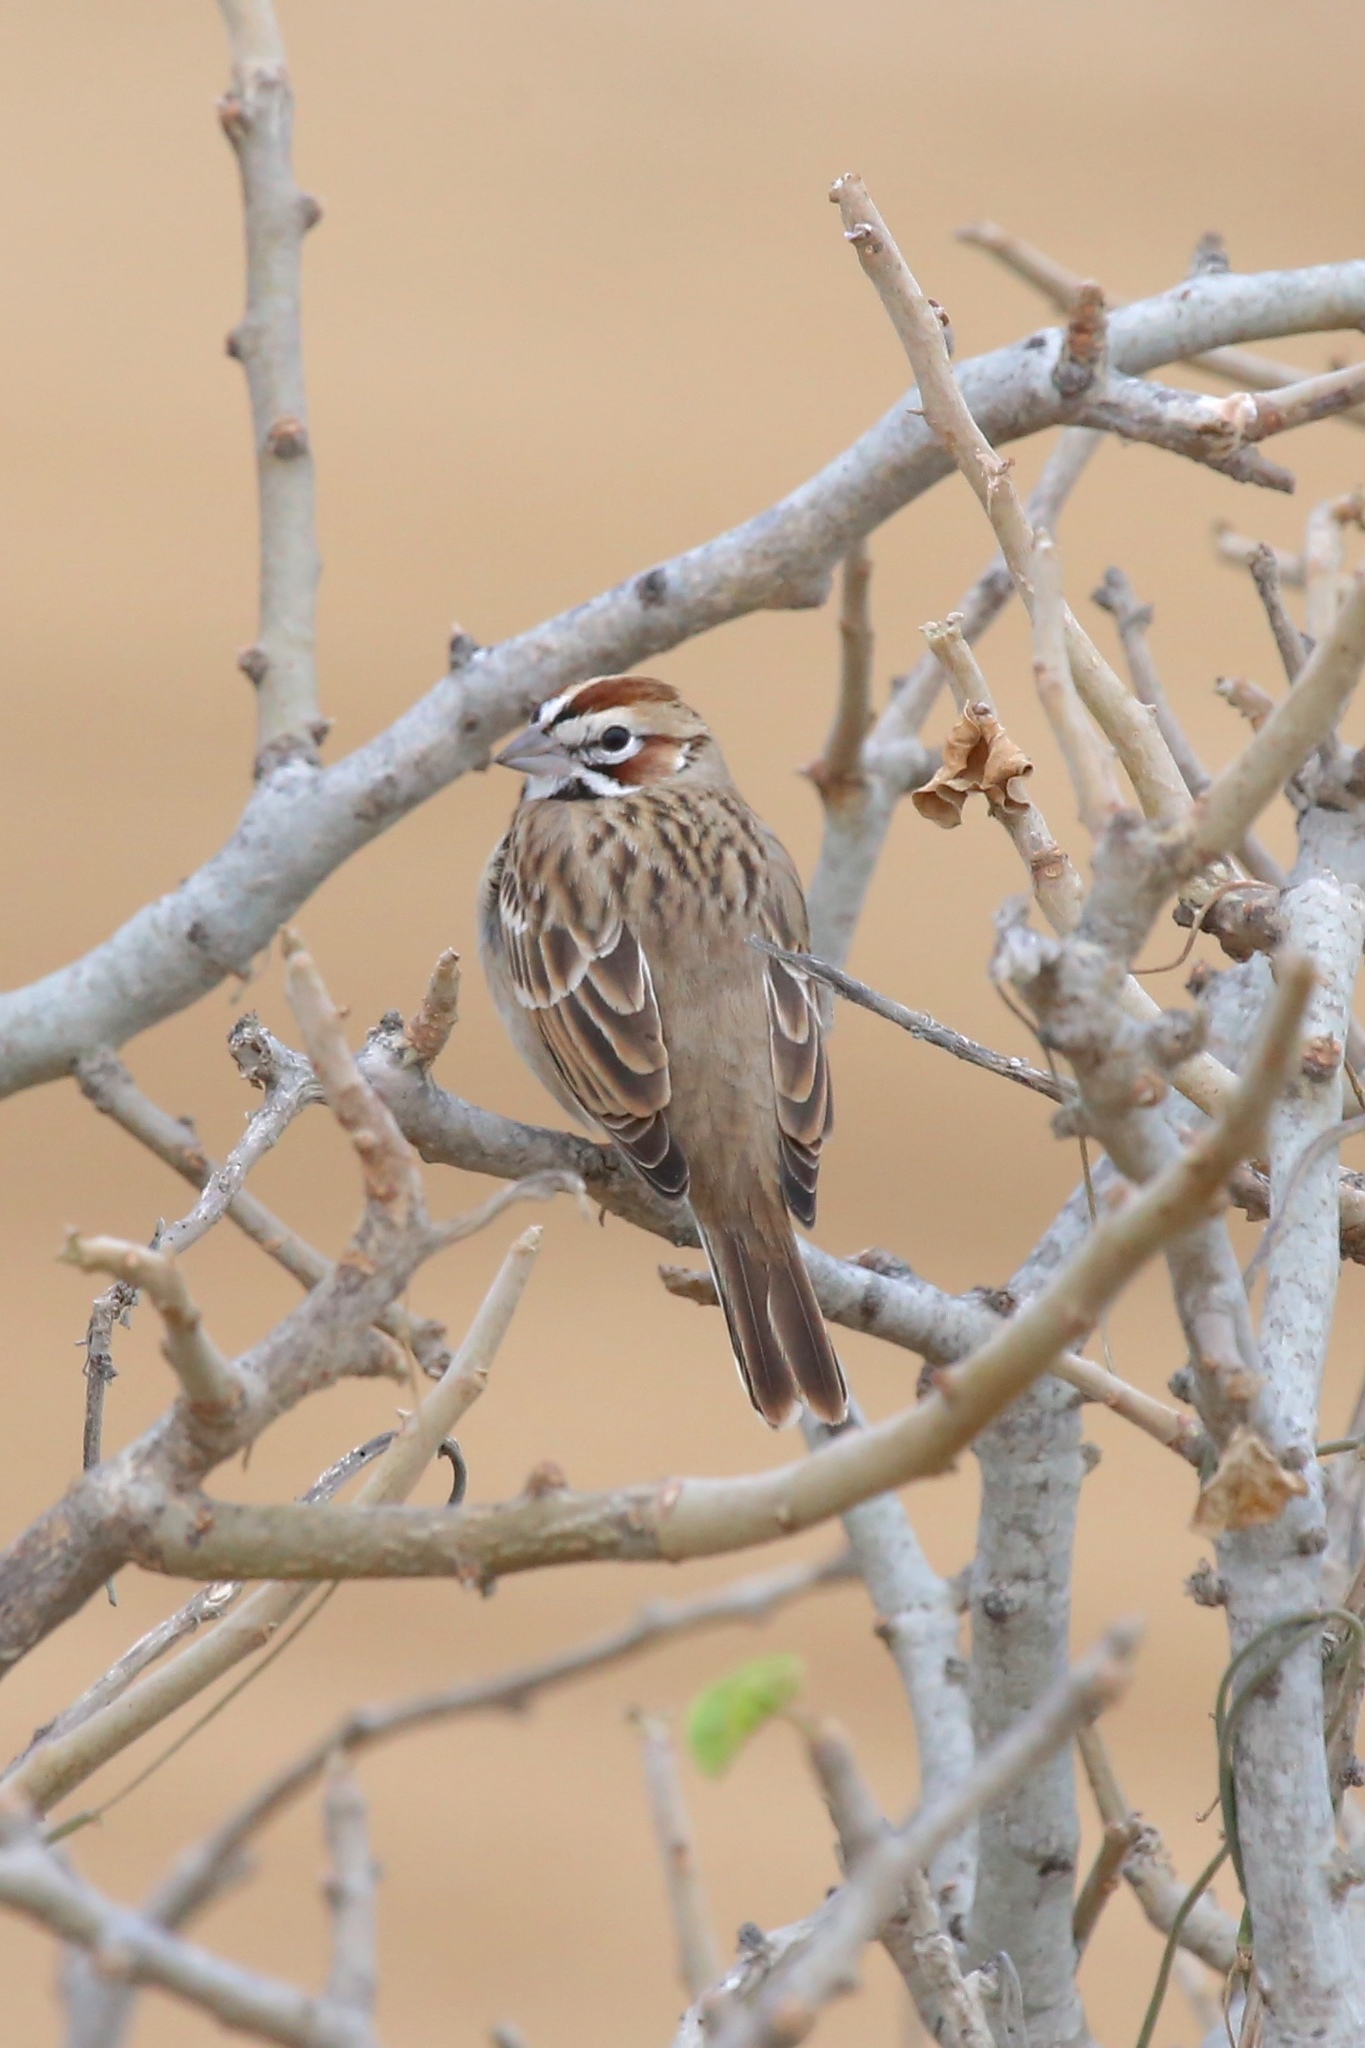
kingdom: Animalia
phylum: Chordata
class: Aves
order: Passeriformes
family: Passerellidae
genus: Chondestes
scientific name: Chondestes grammacus
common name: Lark sparrow
